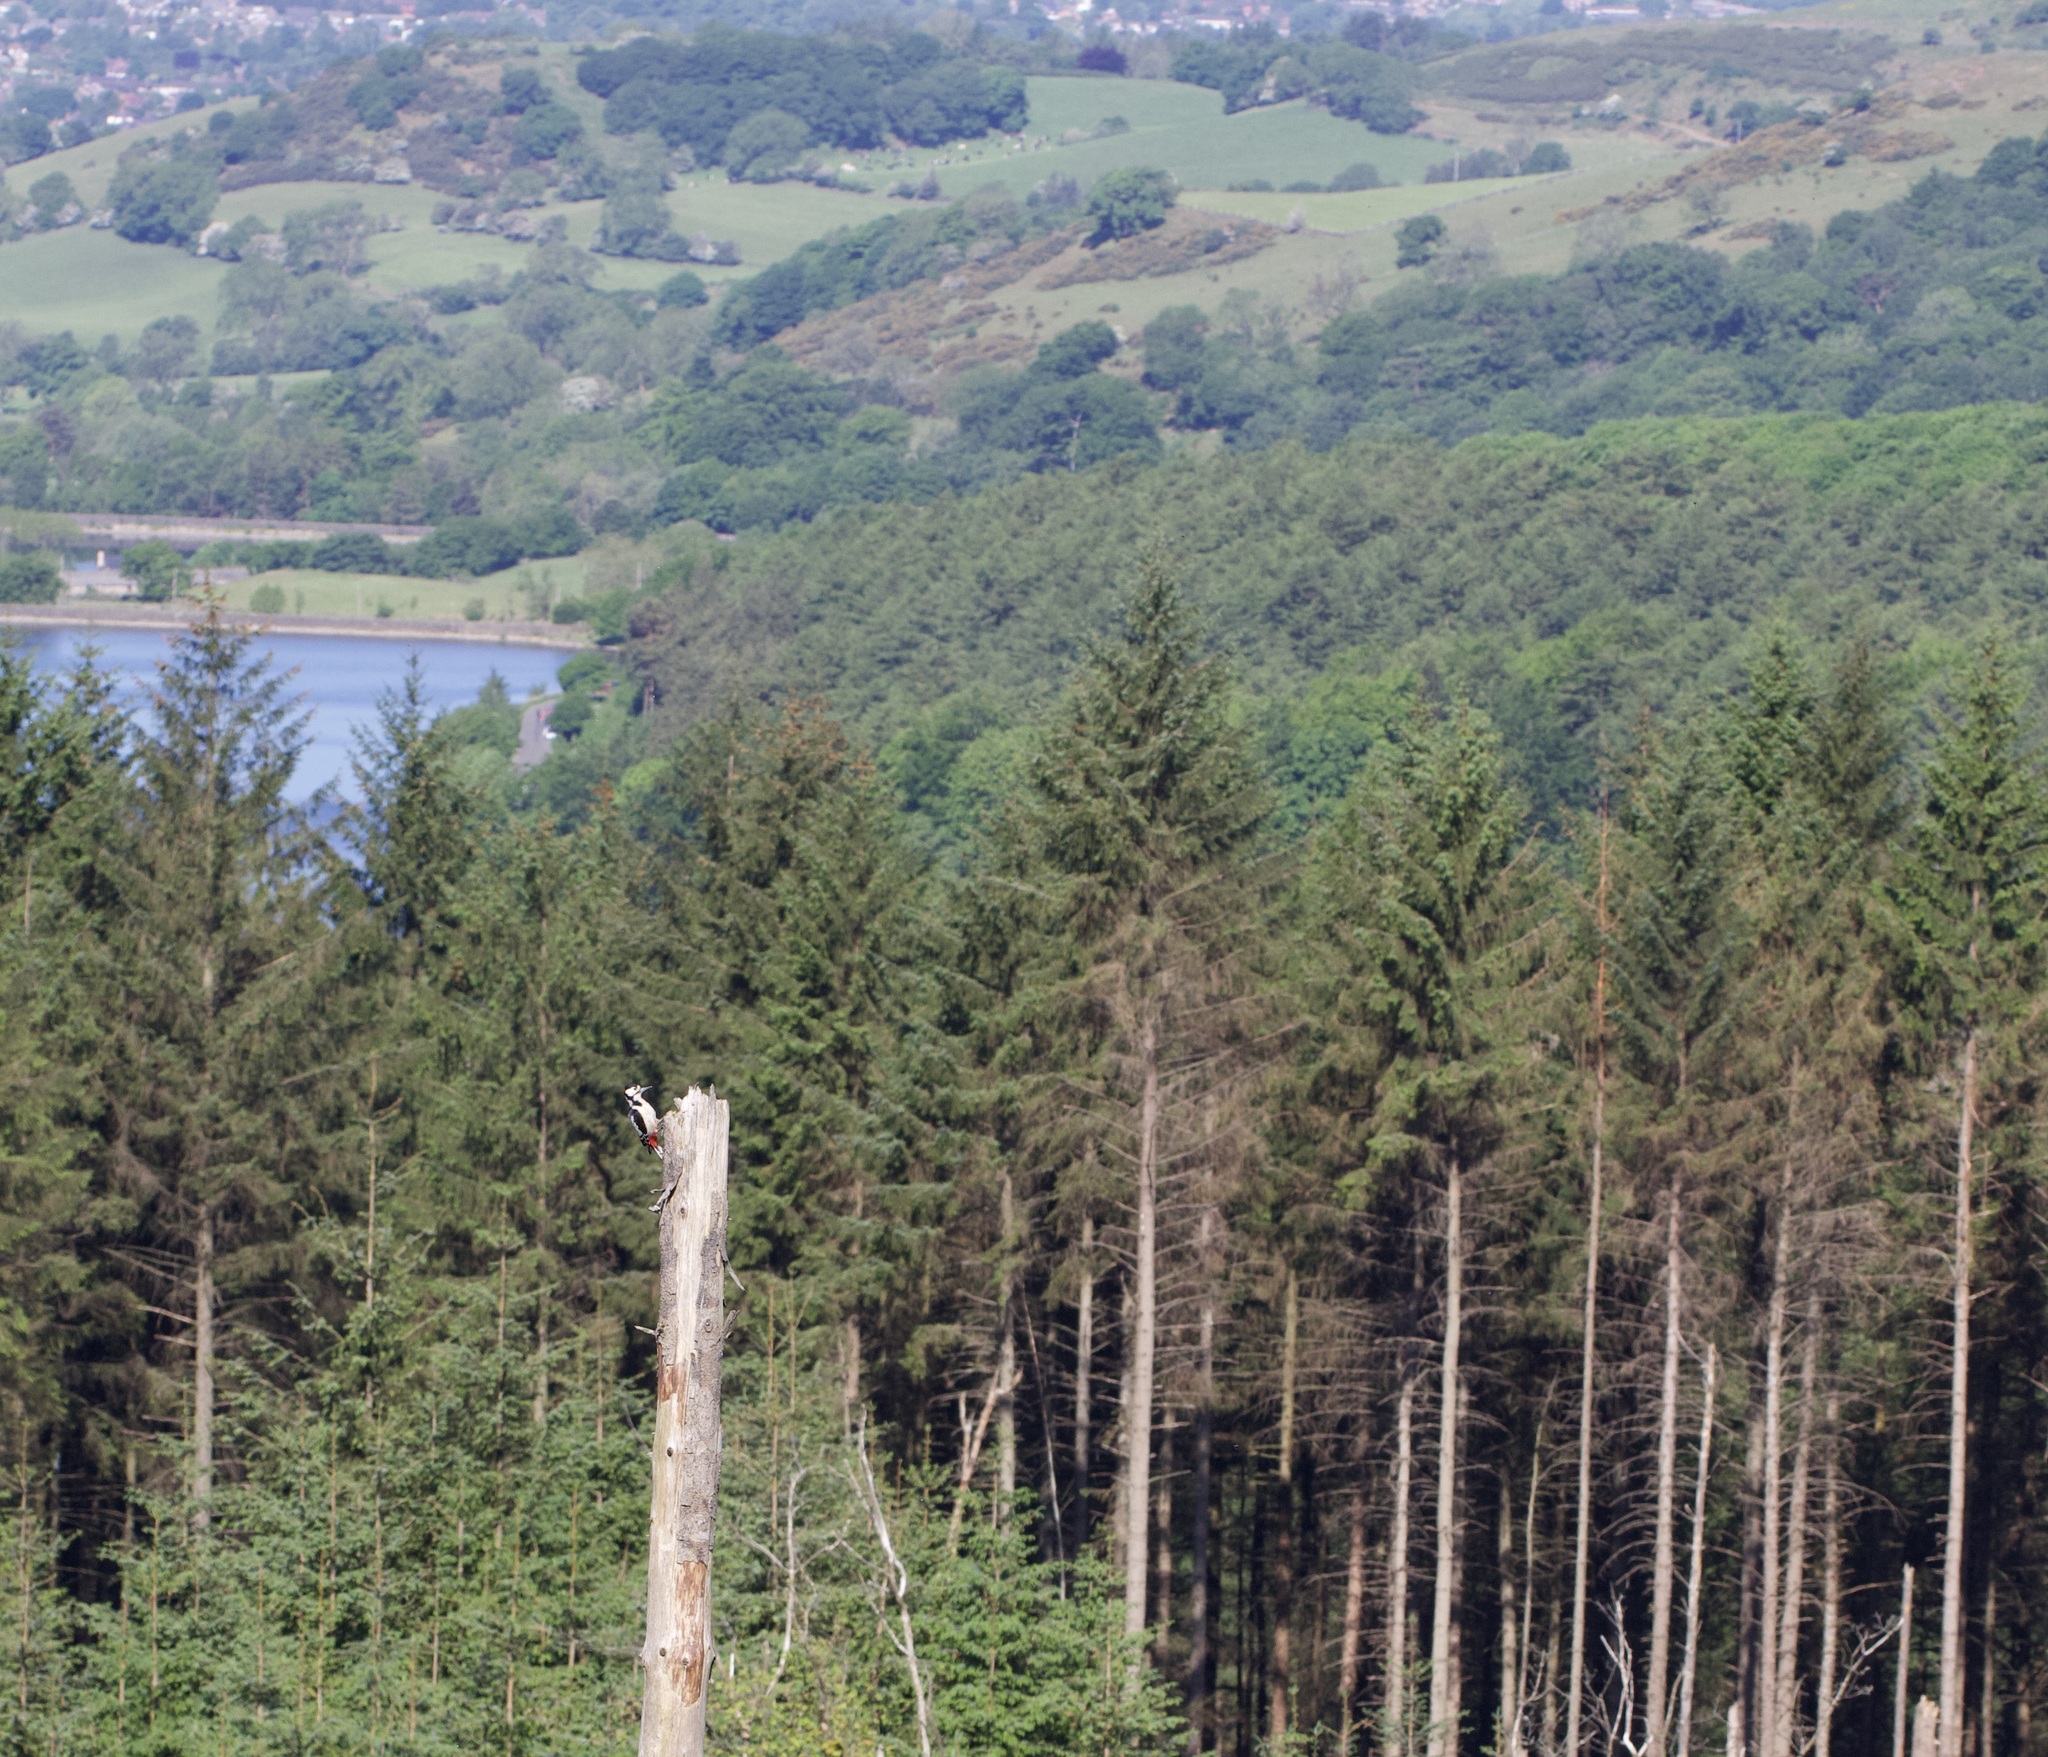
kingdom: Animalia
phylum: Chordata
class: Aves
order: Piciformes
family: Picidae
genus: Dendrocopos
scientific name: Dendrocopos major
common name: Great spotted woodpecker
